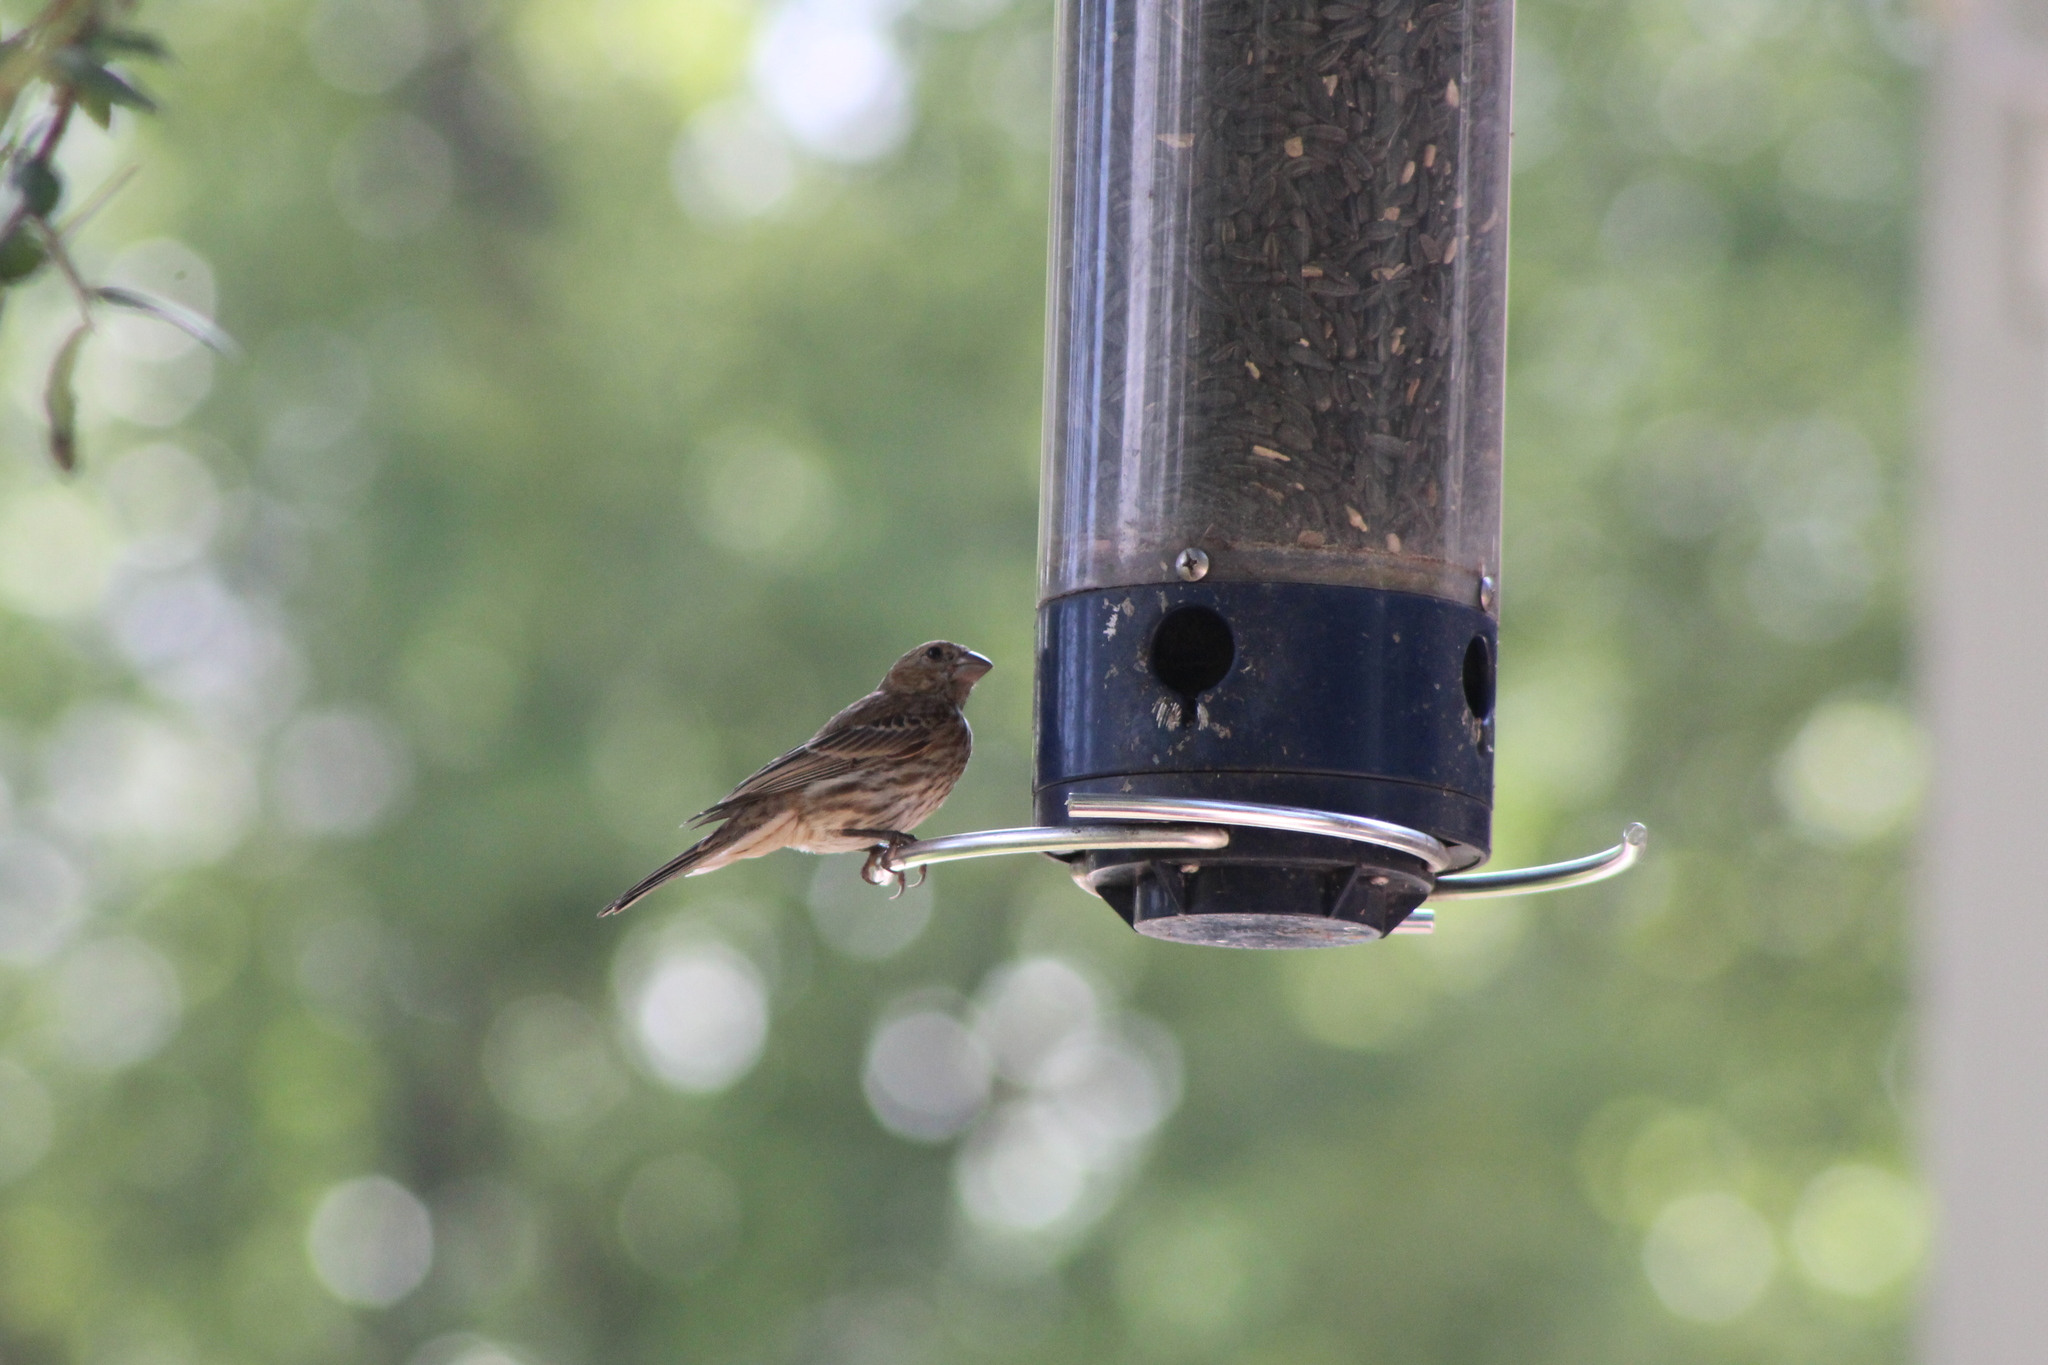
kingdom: Animalia
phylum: Chordata
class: Aves
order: Passeriformes
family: Fringillidae
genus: Haemorhous
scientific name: Haemorhous mexicanus
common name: House finch
